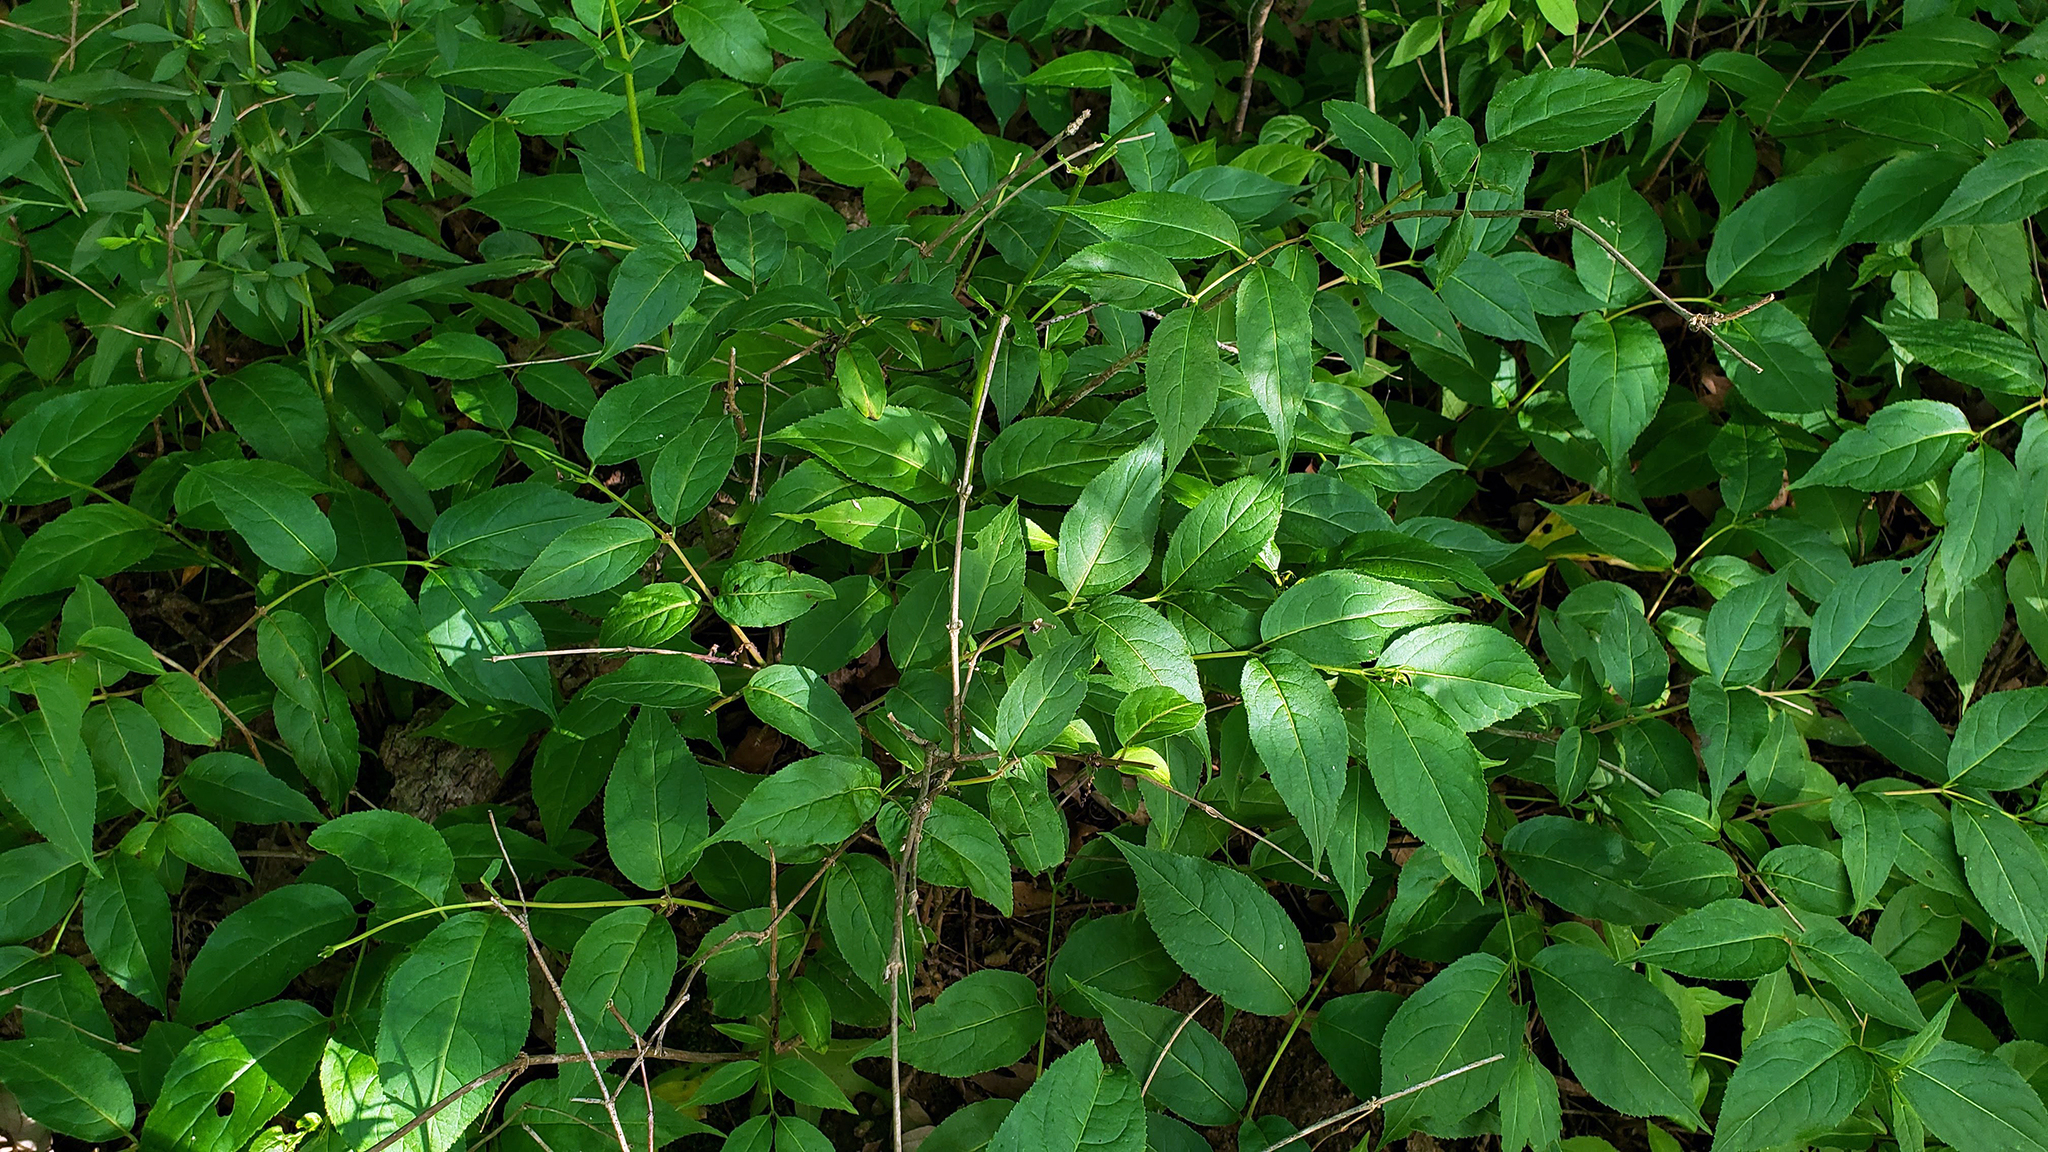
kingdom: Plantae
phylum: Tracheophyta
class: Magnoliopsida
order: Dipsacales
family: Caprifoliaceae
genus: Diervilla
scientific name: Diervilla lonicera
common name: Bush-honeysuckle
